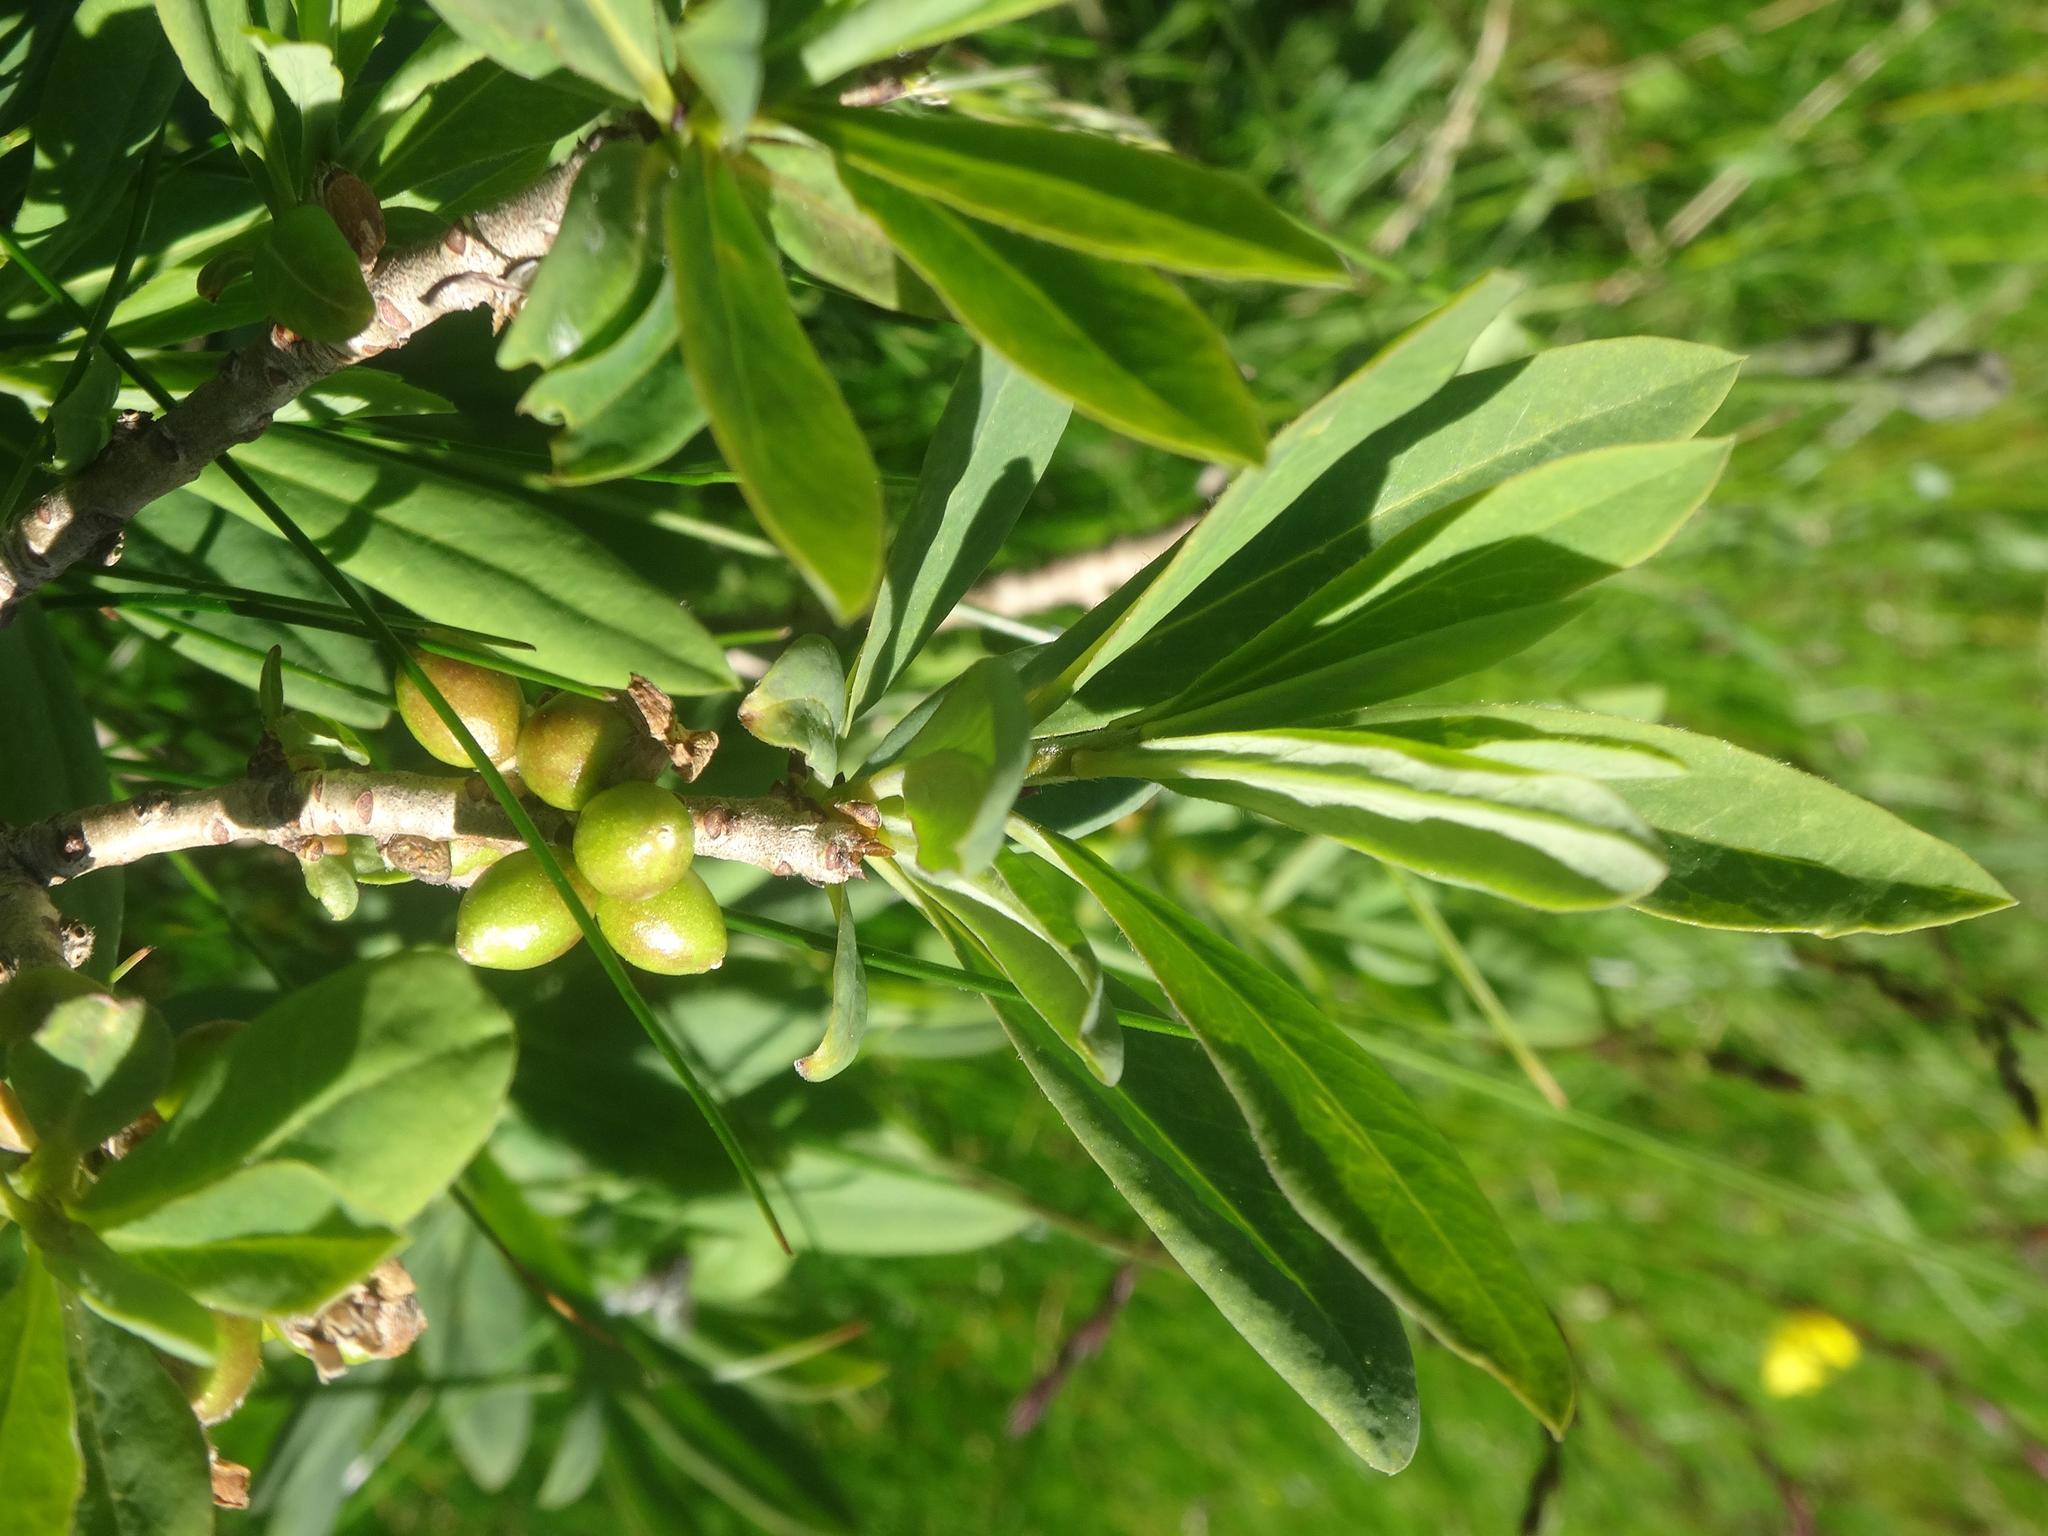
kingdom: Plantae
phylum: Tracheophyta
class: Magnoliopsida
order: Malvales
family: Thymelaeaceae
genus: Daphne
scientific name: Daphne mezereum
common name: Mezereon
